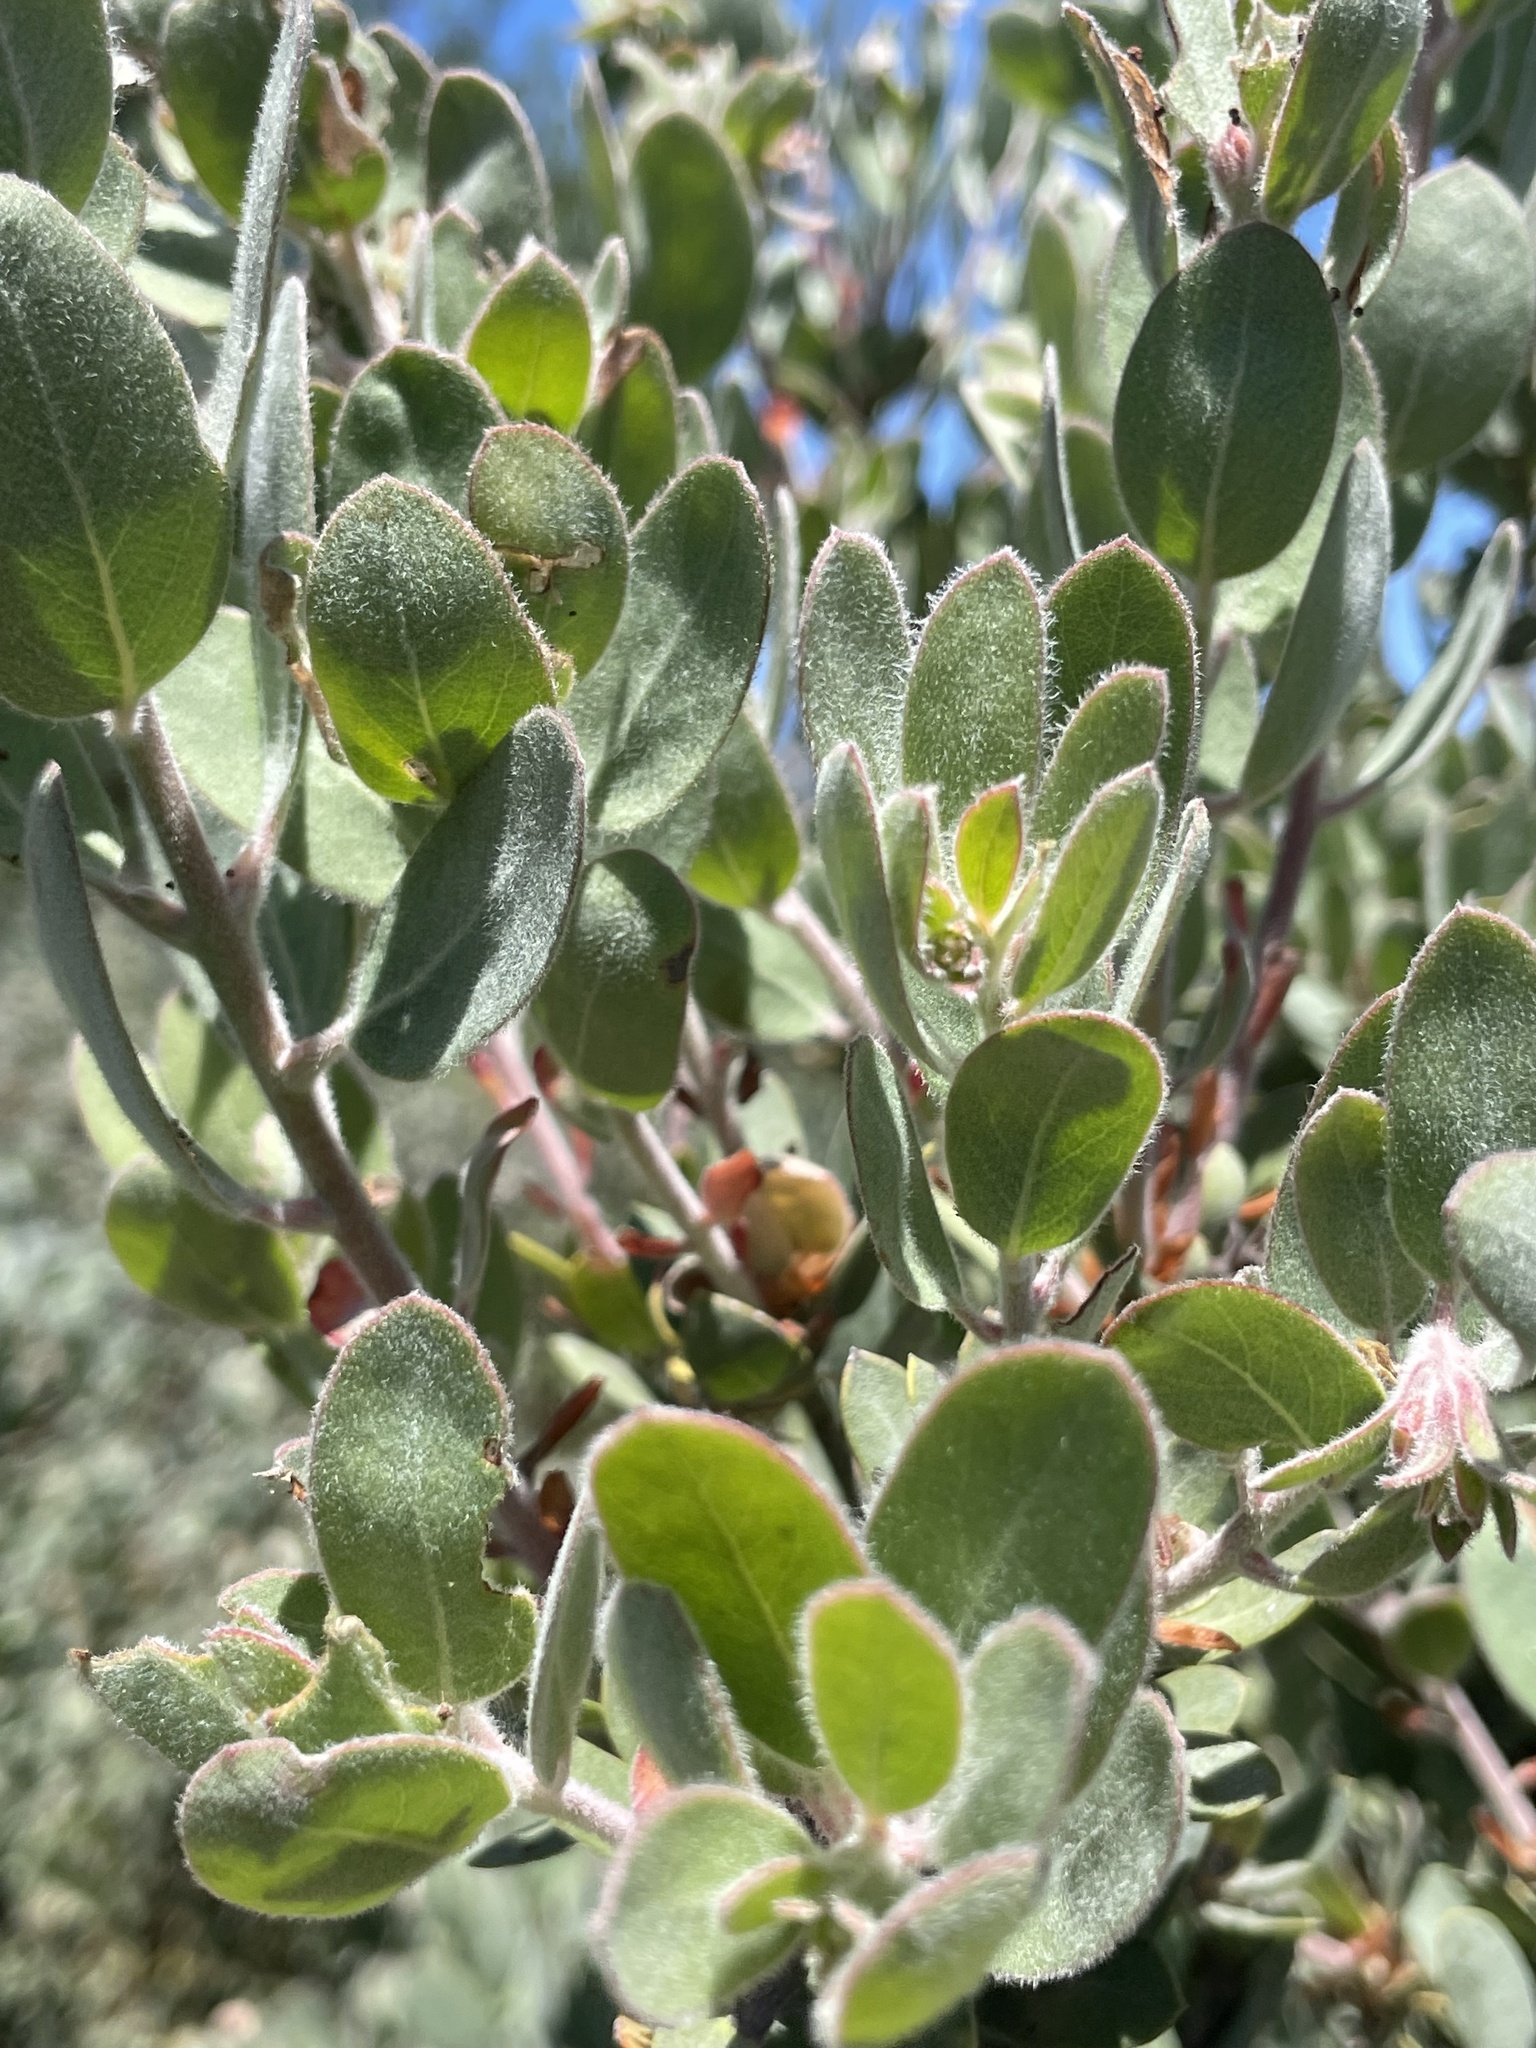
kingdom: Plantae
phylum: Tracheophyta
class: Magnoliopsida
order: Ericales
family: Ericaceae
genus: Arctostaphylos
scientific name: Arctostaphylos silvicola
